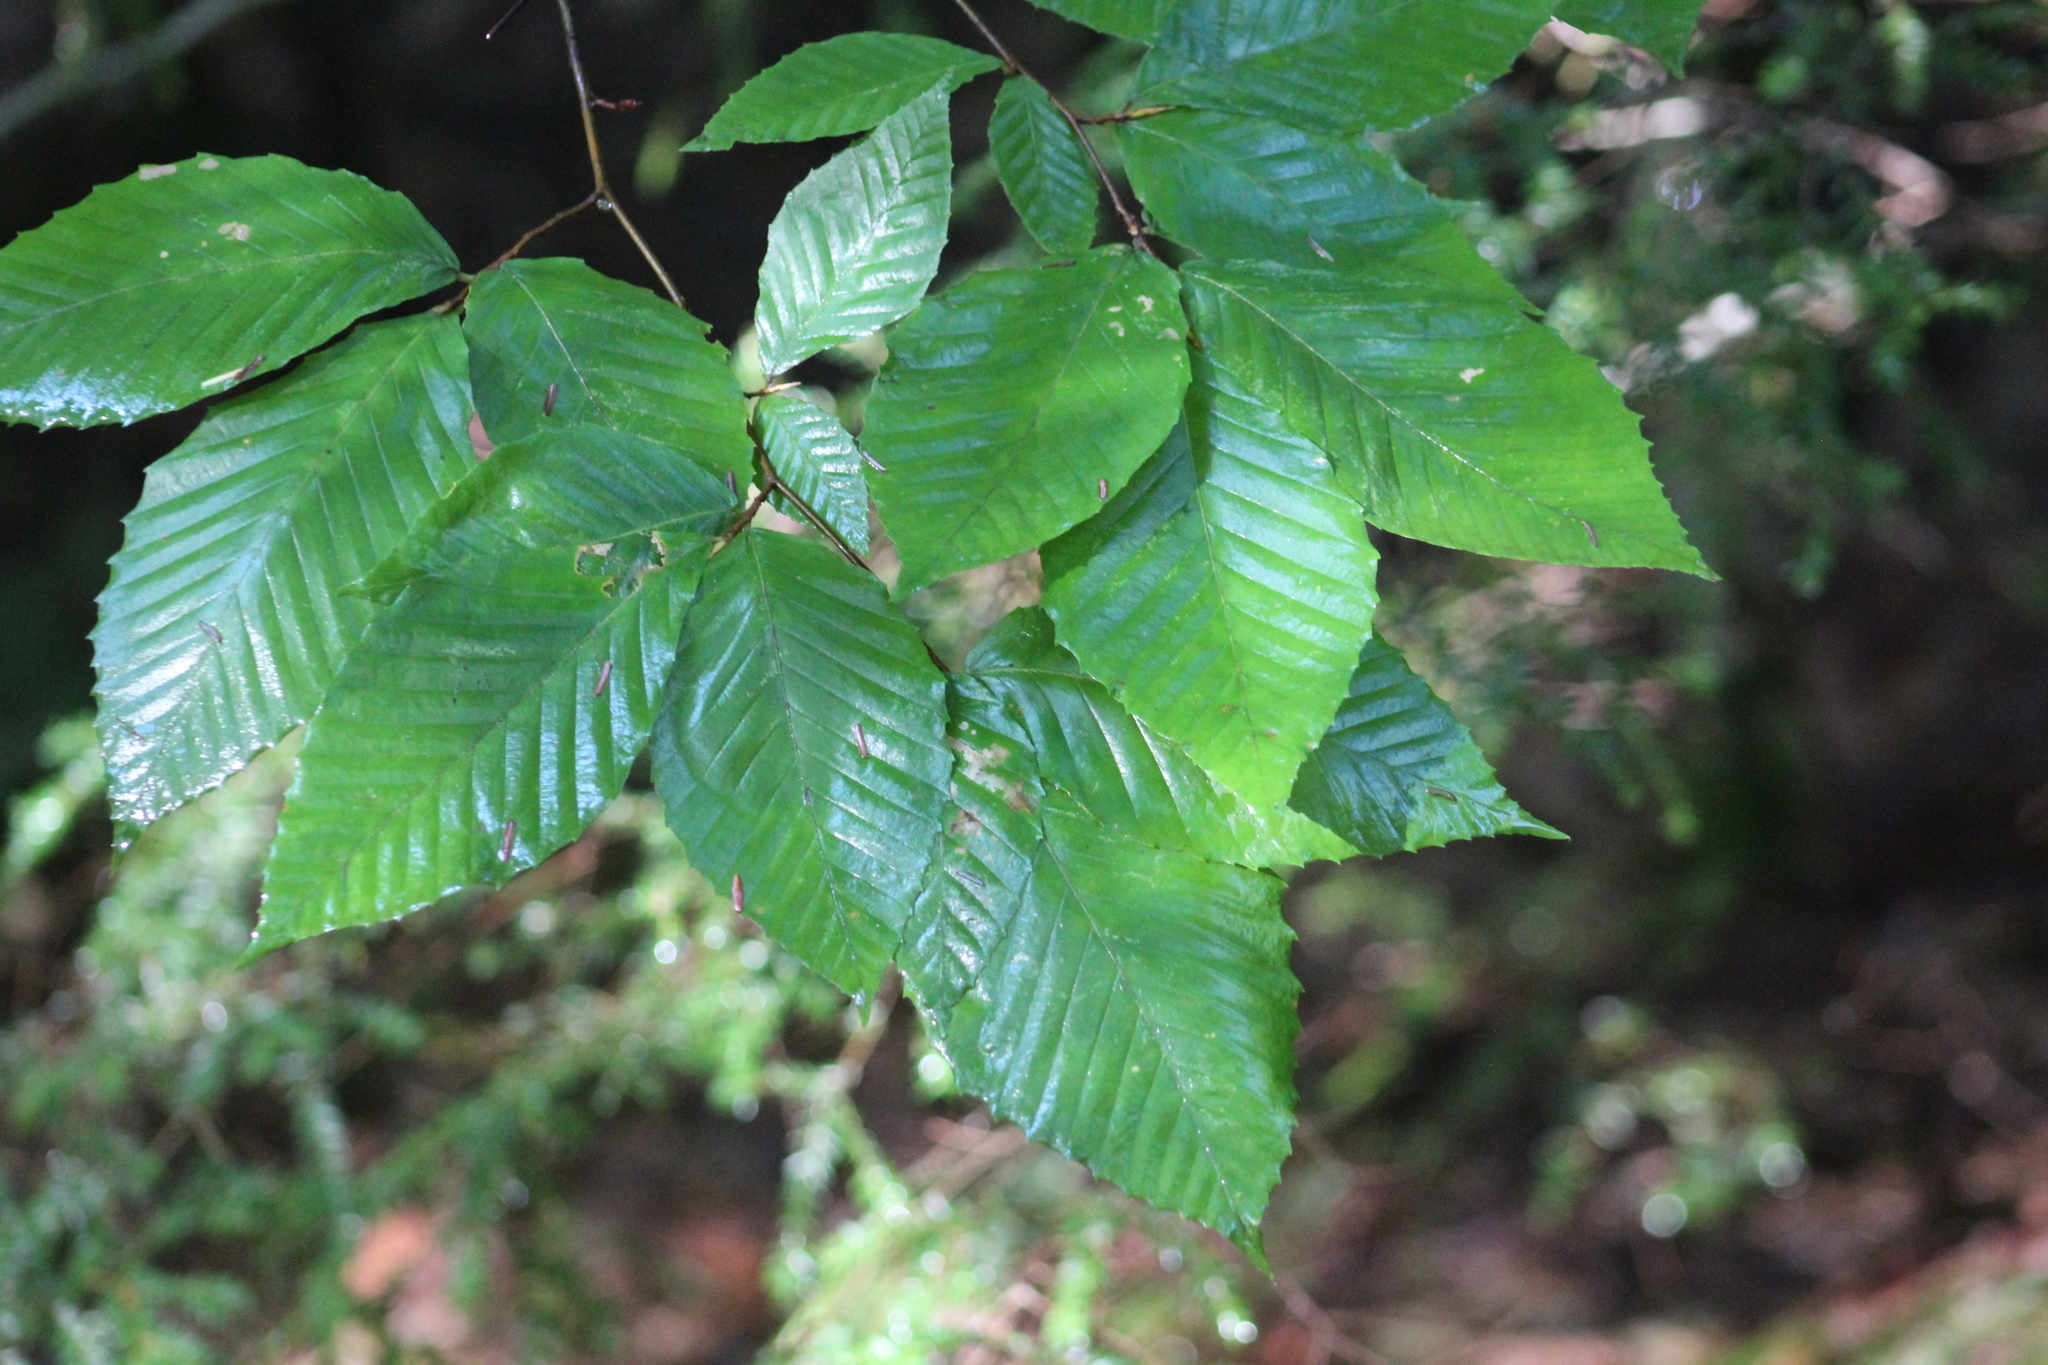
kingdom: Plantae
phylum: Tracheophyta
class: Magnoliopsida
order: Fagales
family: Fagaceae
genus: Fagus
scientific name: Fagus grandifolia
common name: American beech
